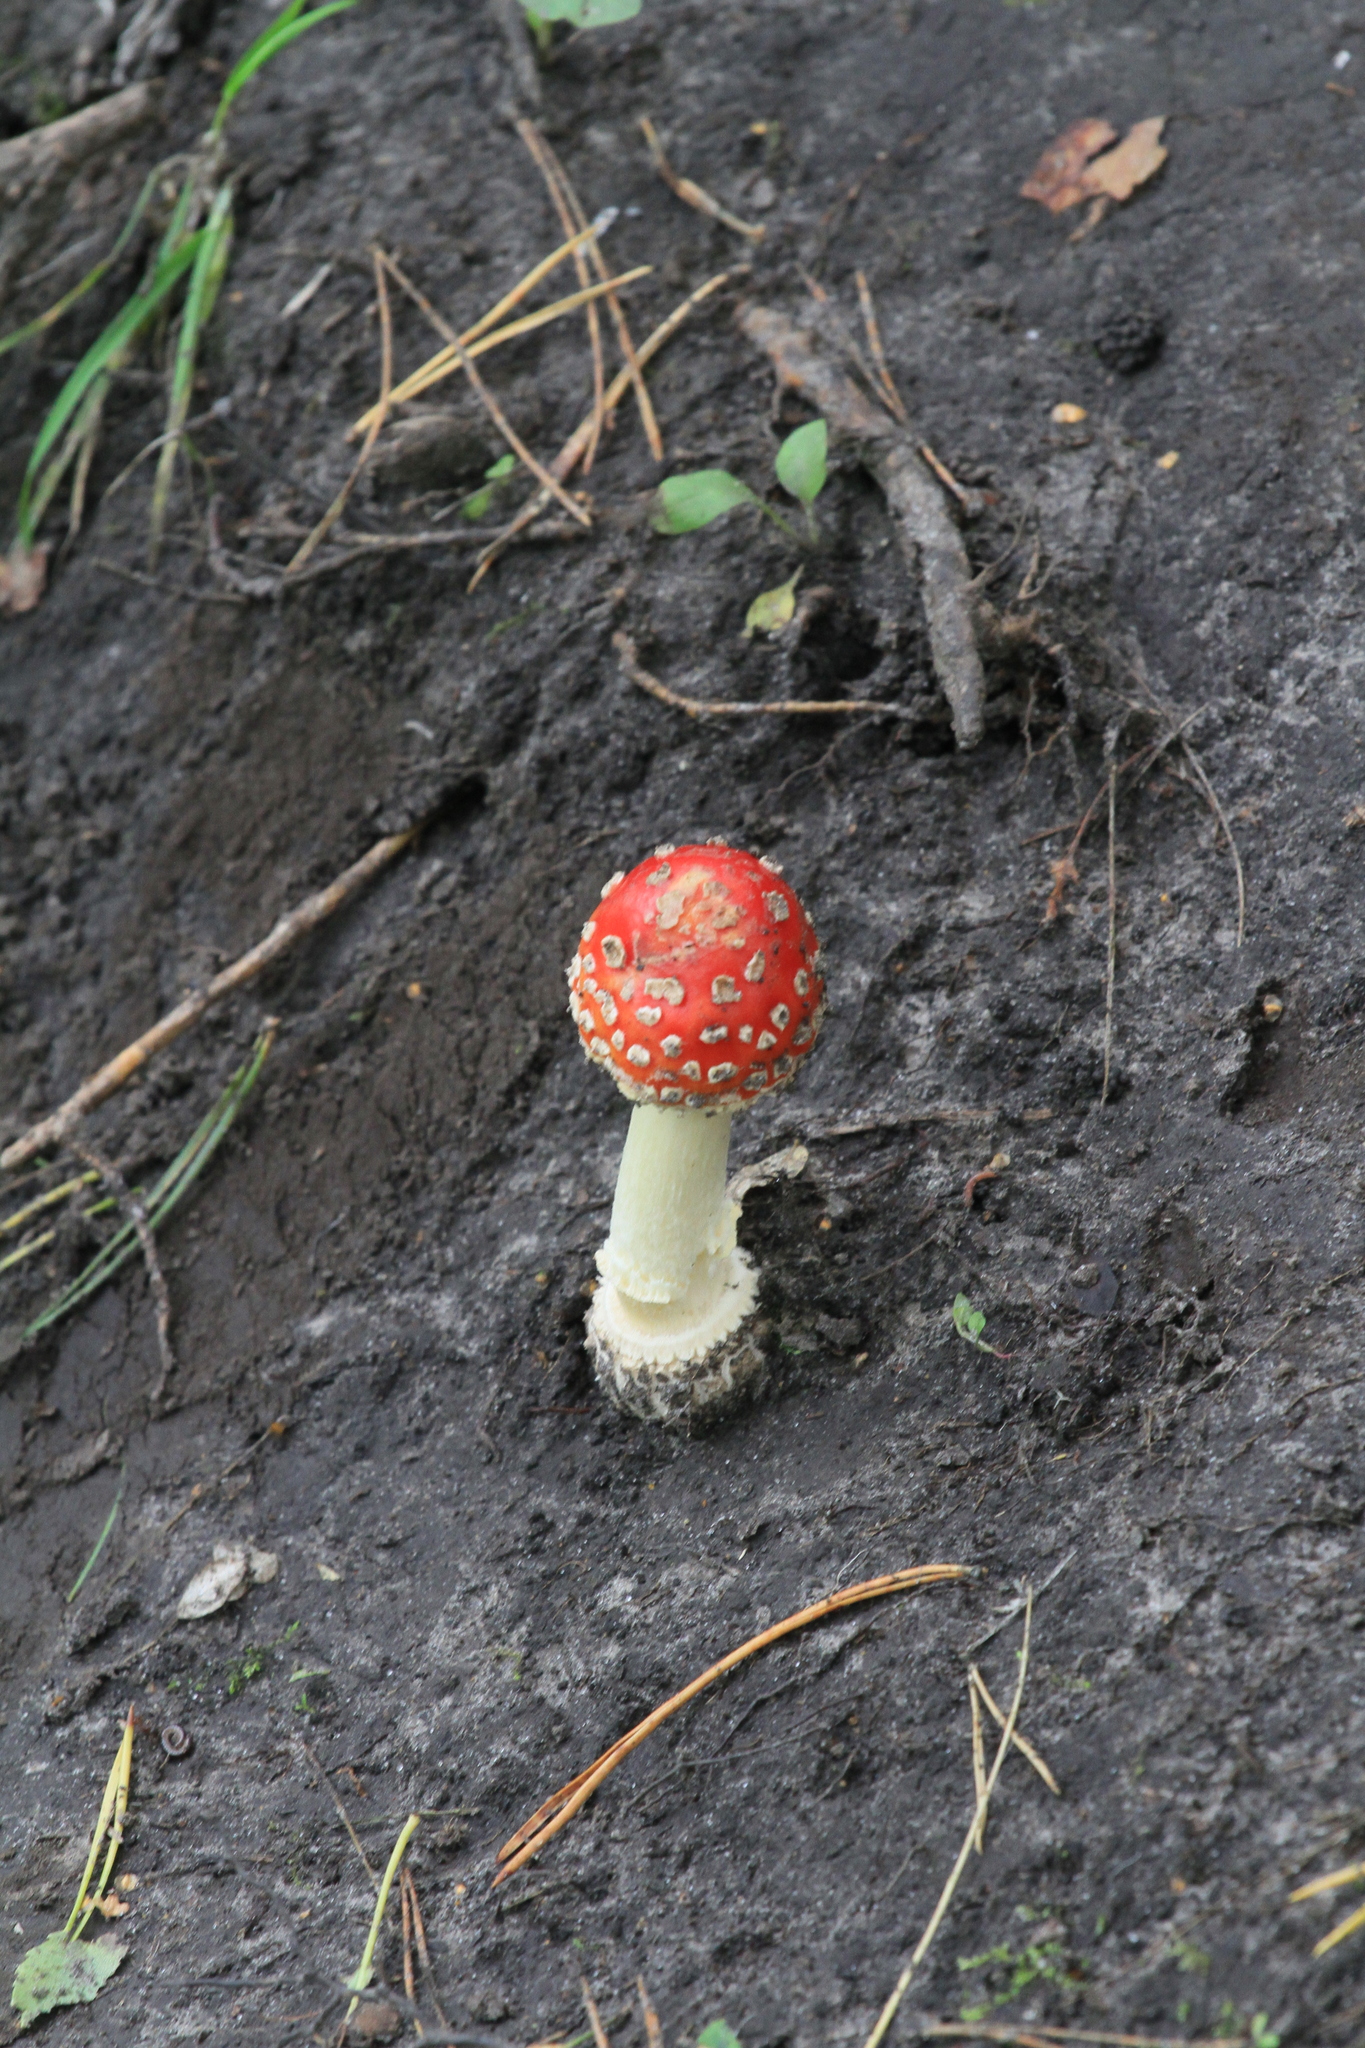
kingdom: Fungi
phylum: Basidiomycota
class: Agaricomycetes
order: Agaricales
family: Amanitaceae
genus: Amanita
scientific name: Amanita muscaria
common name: Fly agaric
